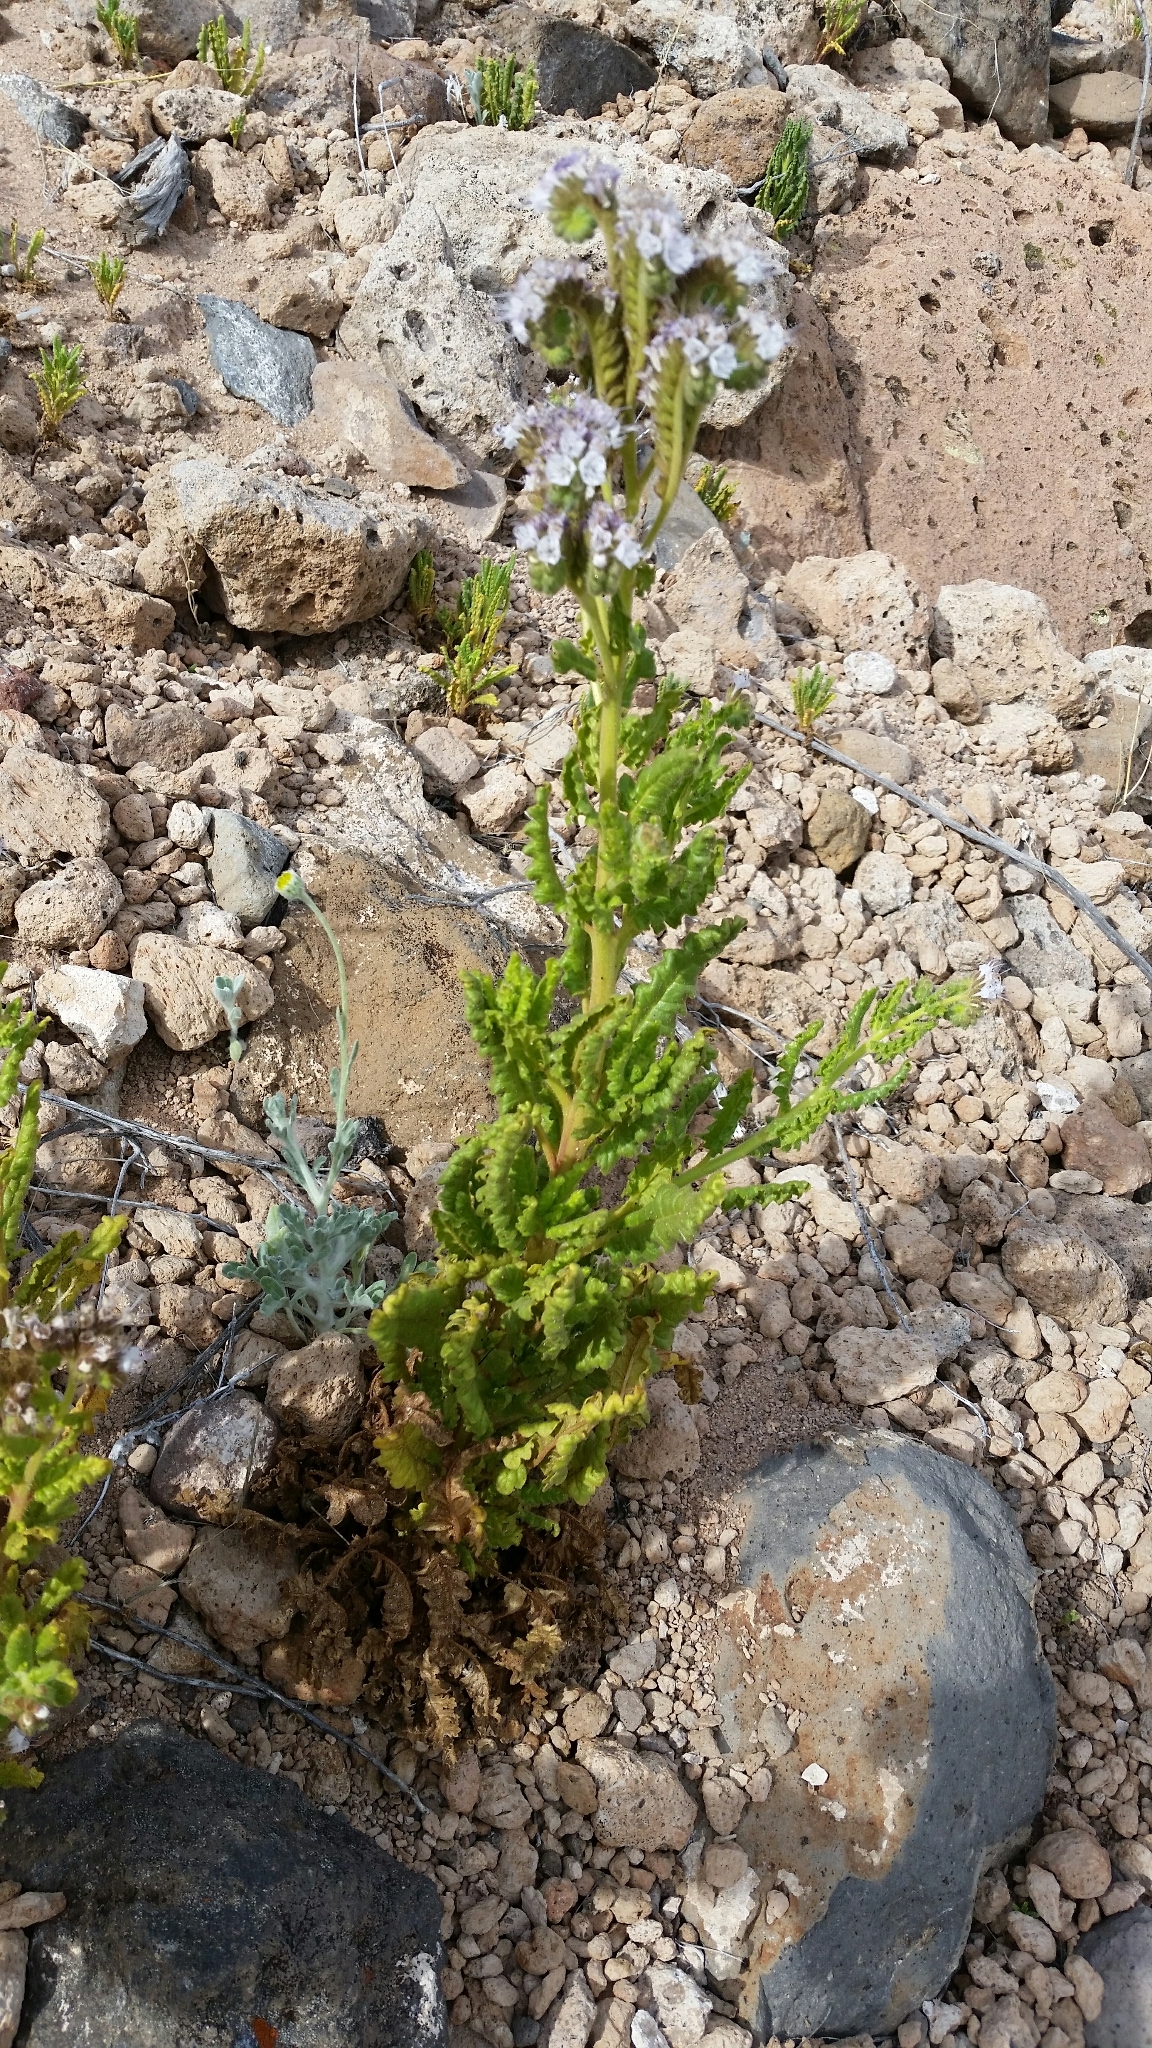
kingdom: Plantae
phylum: Tracheophyta
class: Magnoliopsida
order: Boraginales
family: Hydrophyllaceae
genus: Phacelia
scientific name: Phacelia integrifolia
